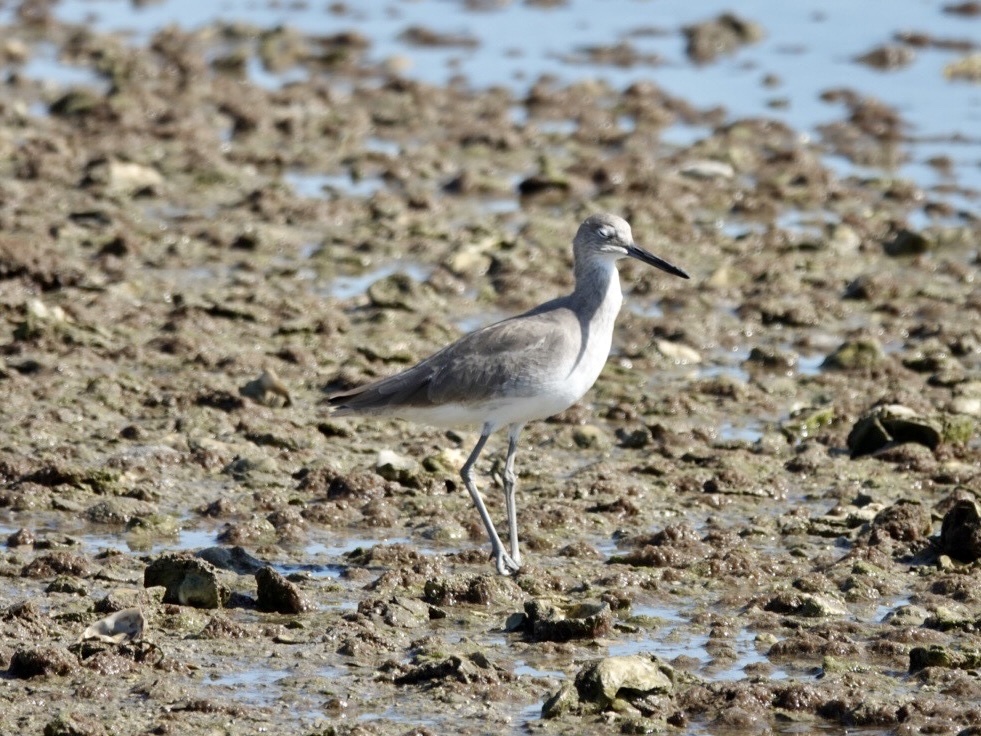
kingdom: Animalia
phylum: Chordata
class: Aves
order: Charadriiformes
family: Scolopacidae
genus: Tringa
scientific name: Tringa semipalmata
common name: Willet
